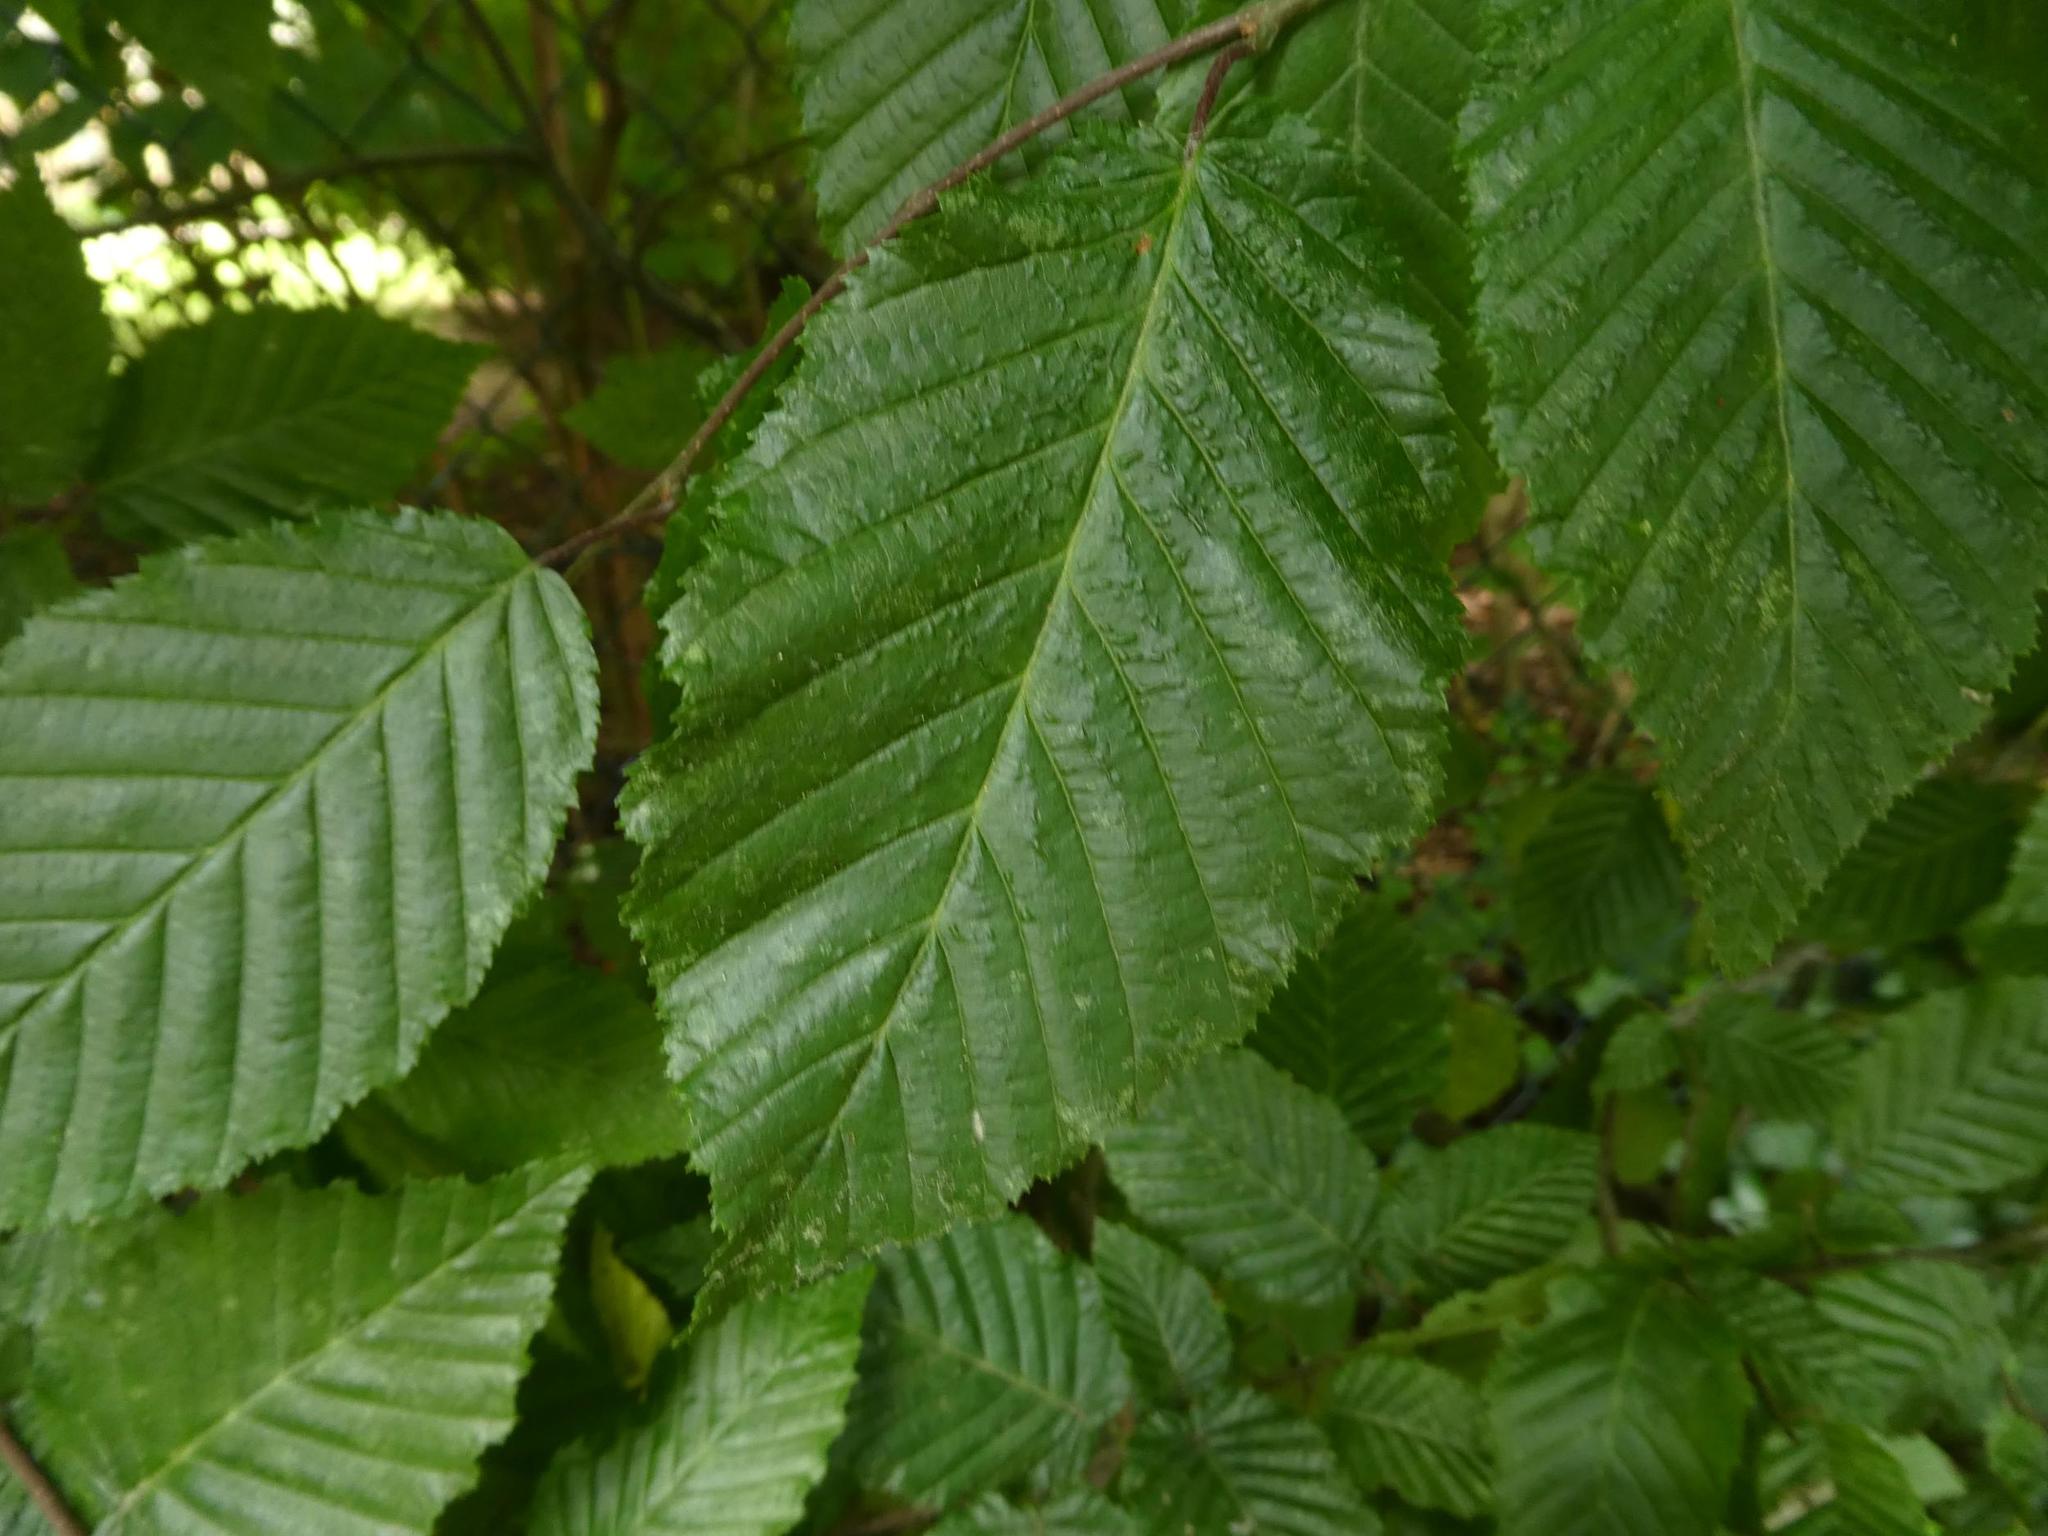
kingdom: Plantae
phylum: Tracheophyta
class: Magnoliopsida
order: Fagales
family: Betulaceae
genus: Carpinus
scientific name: Carpinus betulus
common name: Hornbeam
